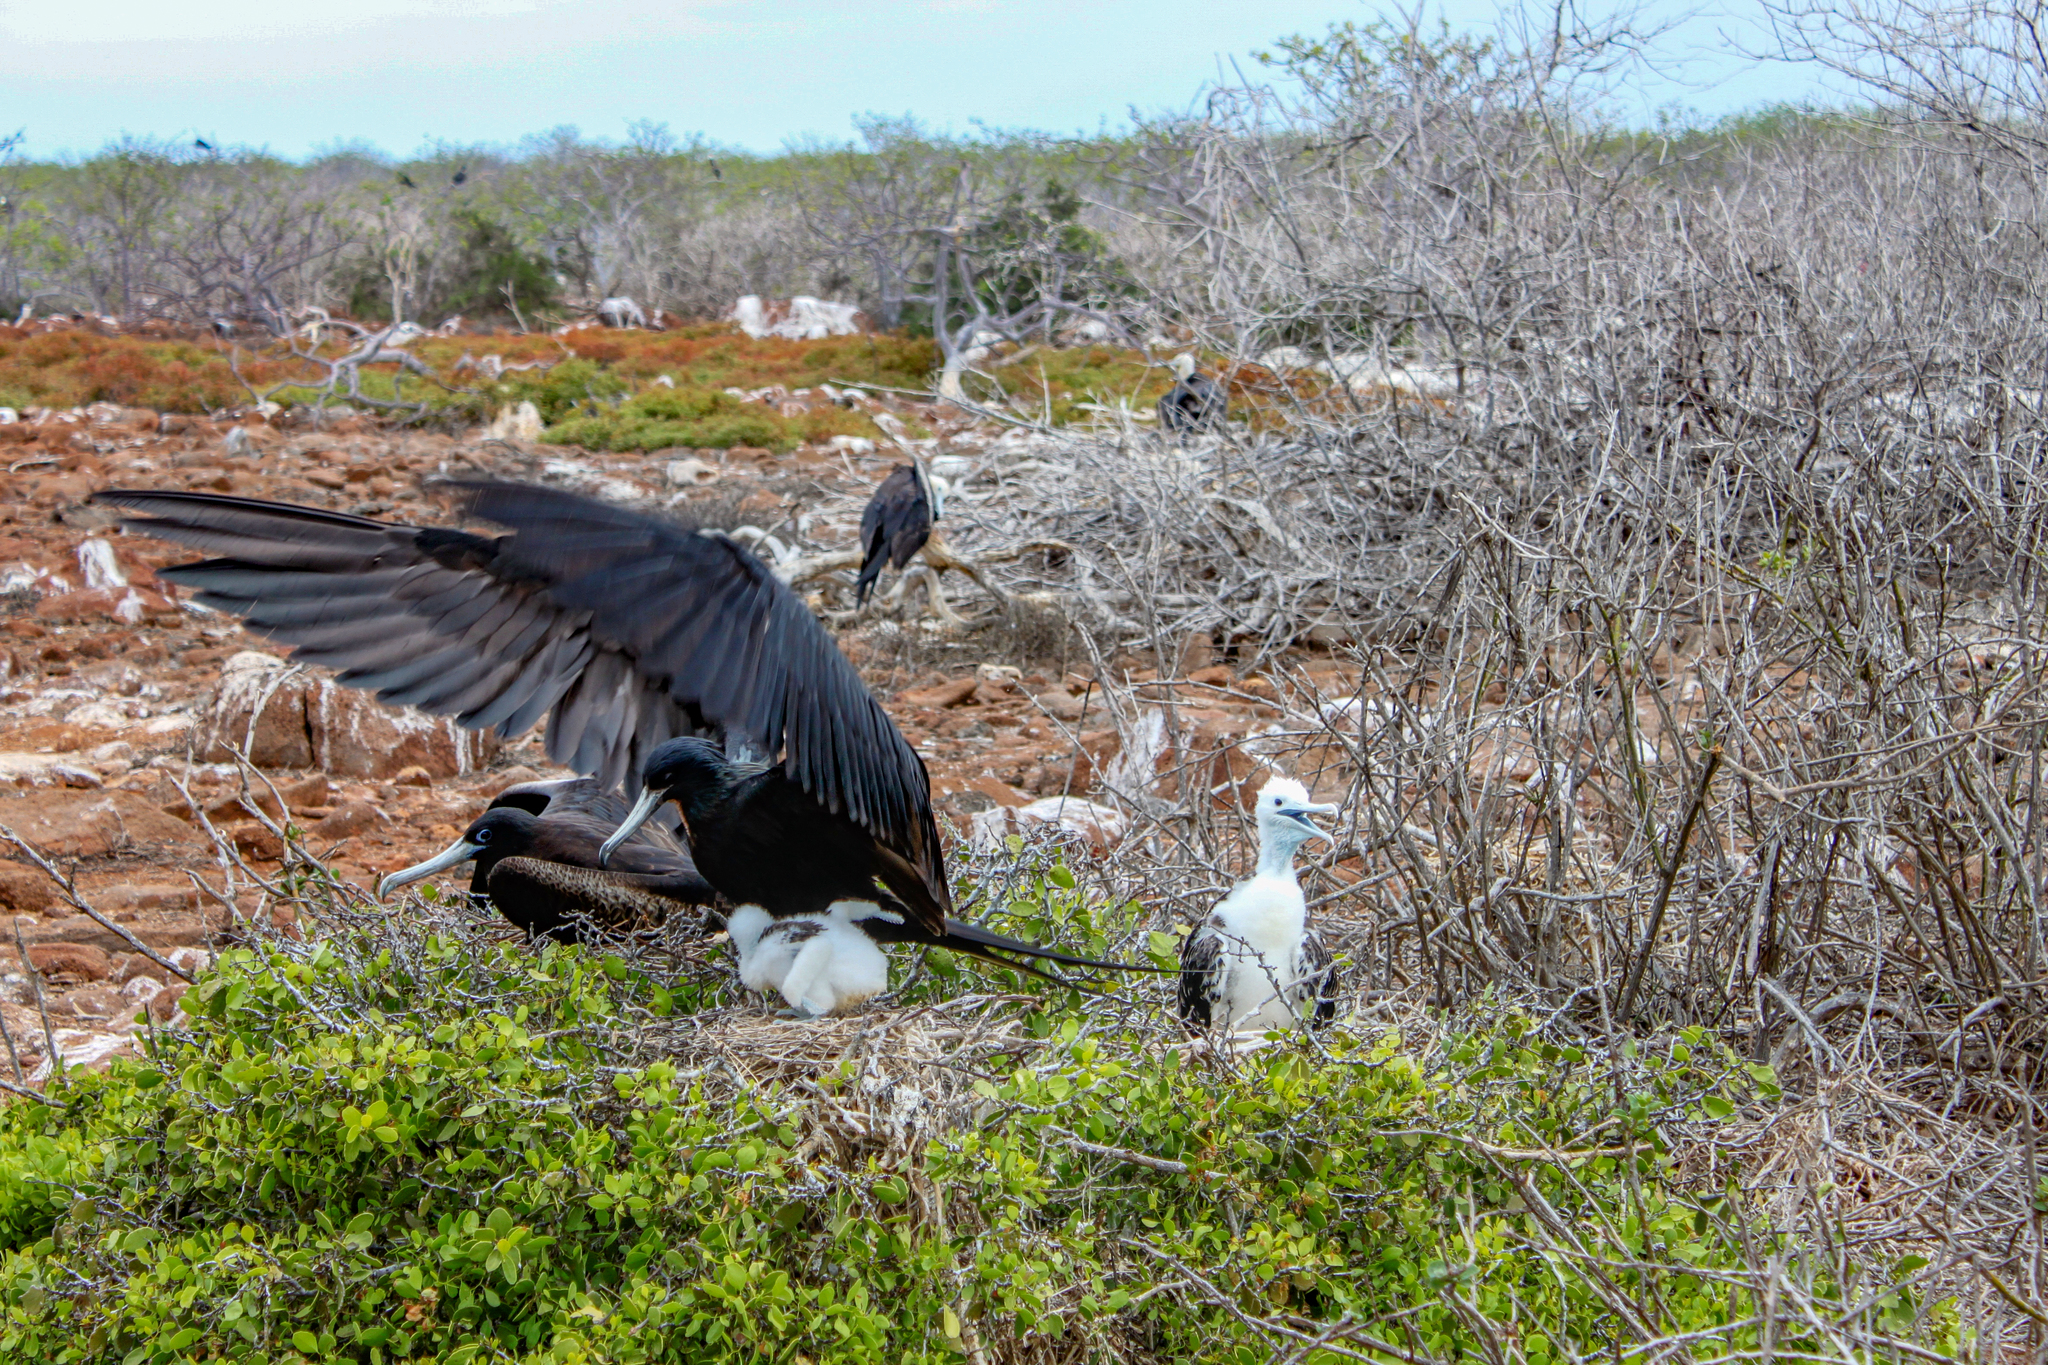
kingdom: Animalia
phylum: Chordata
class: Aves
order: Suliformes
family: Fregatidae
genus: Fregata
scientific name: Fregata magnificens
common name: Magnificent frigatebird
